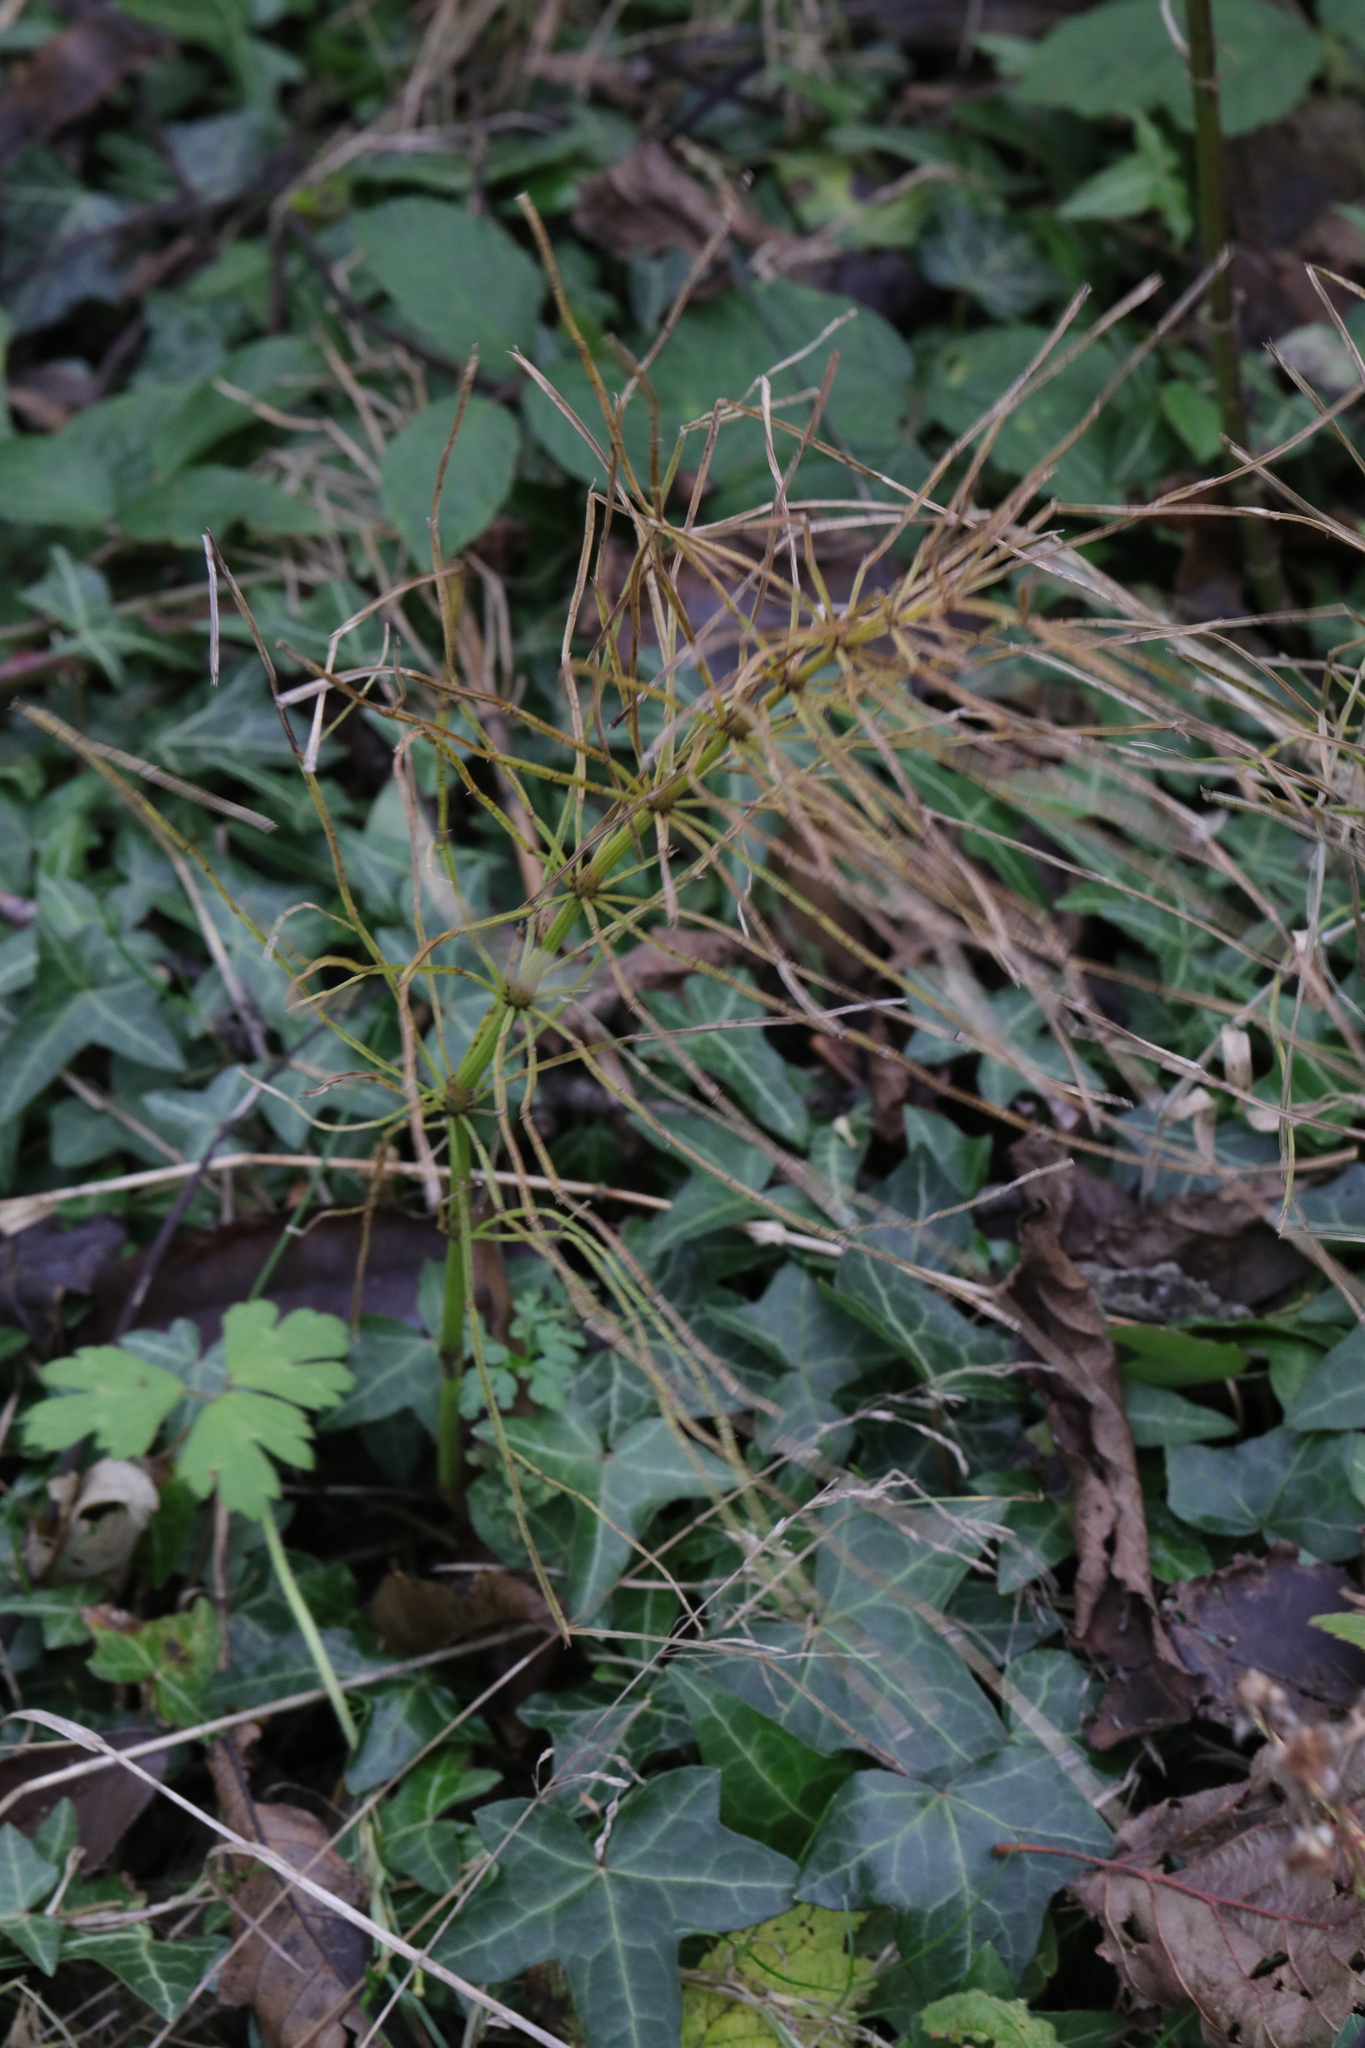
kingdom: Plantae
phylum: Tracheophyta
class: Polypodiopsida
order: Equisetales
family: Equisetaceae
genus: Equisetum
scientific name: Equisetum arvense
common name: Field horsetail
